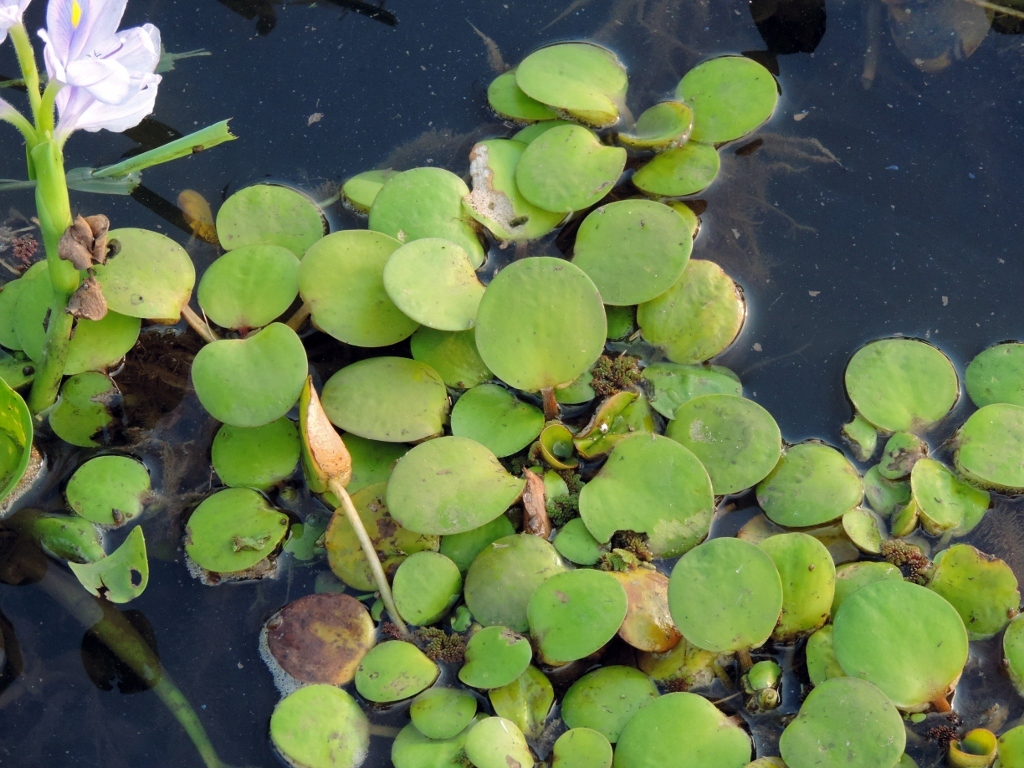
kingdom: Plantae
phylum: Tracheophyta
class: Liliopsida
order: Alismatales
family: Hydrocharitaceae
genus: Hydrocharis
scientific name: Hydrocharis laevigata
